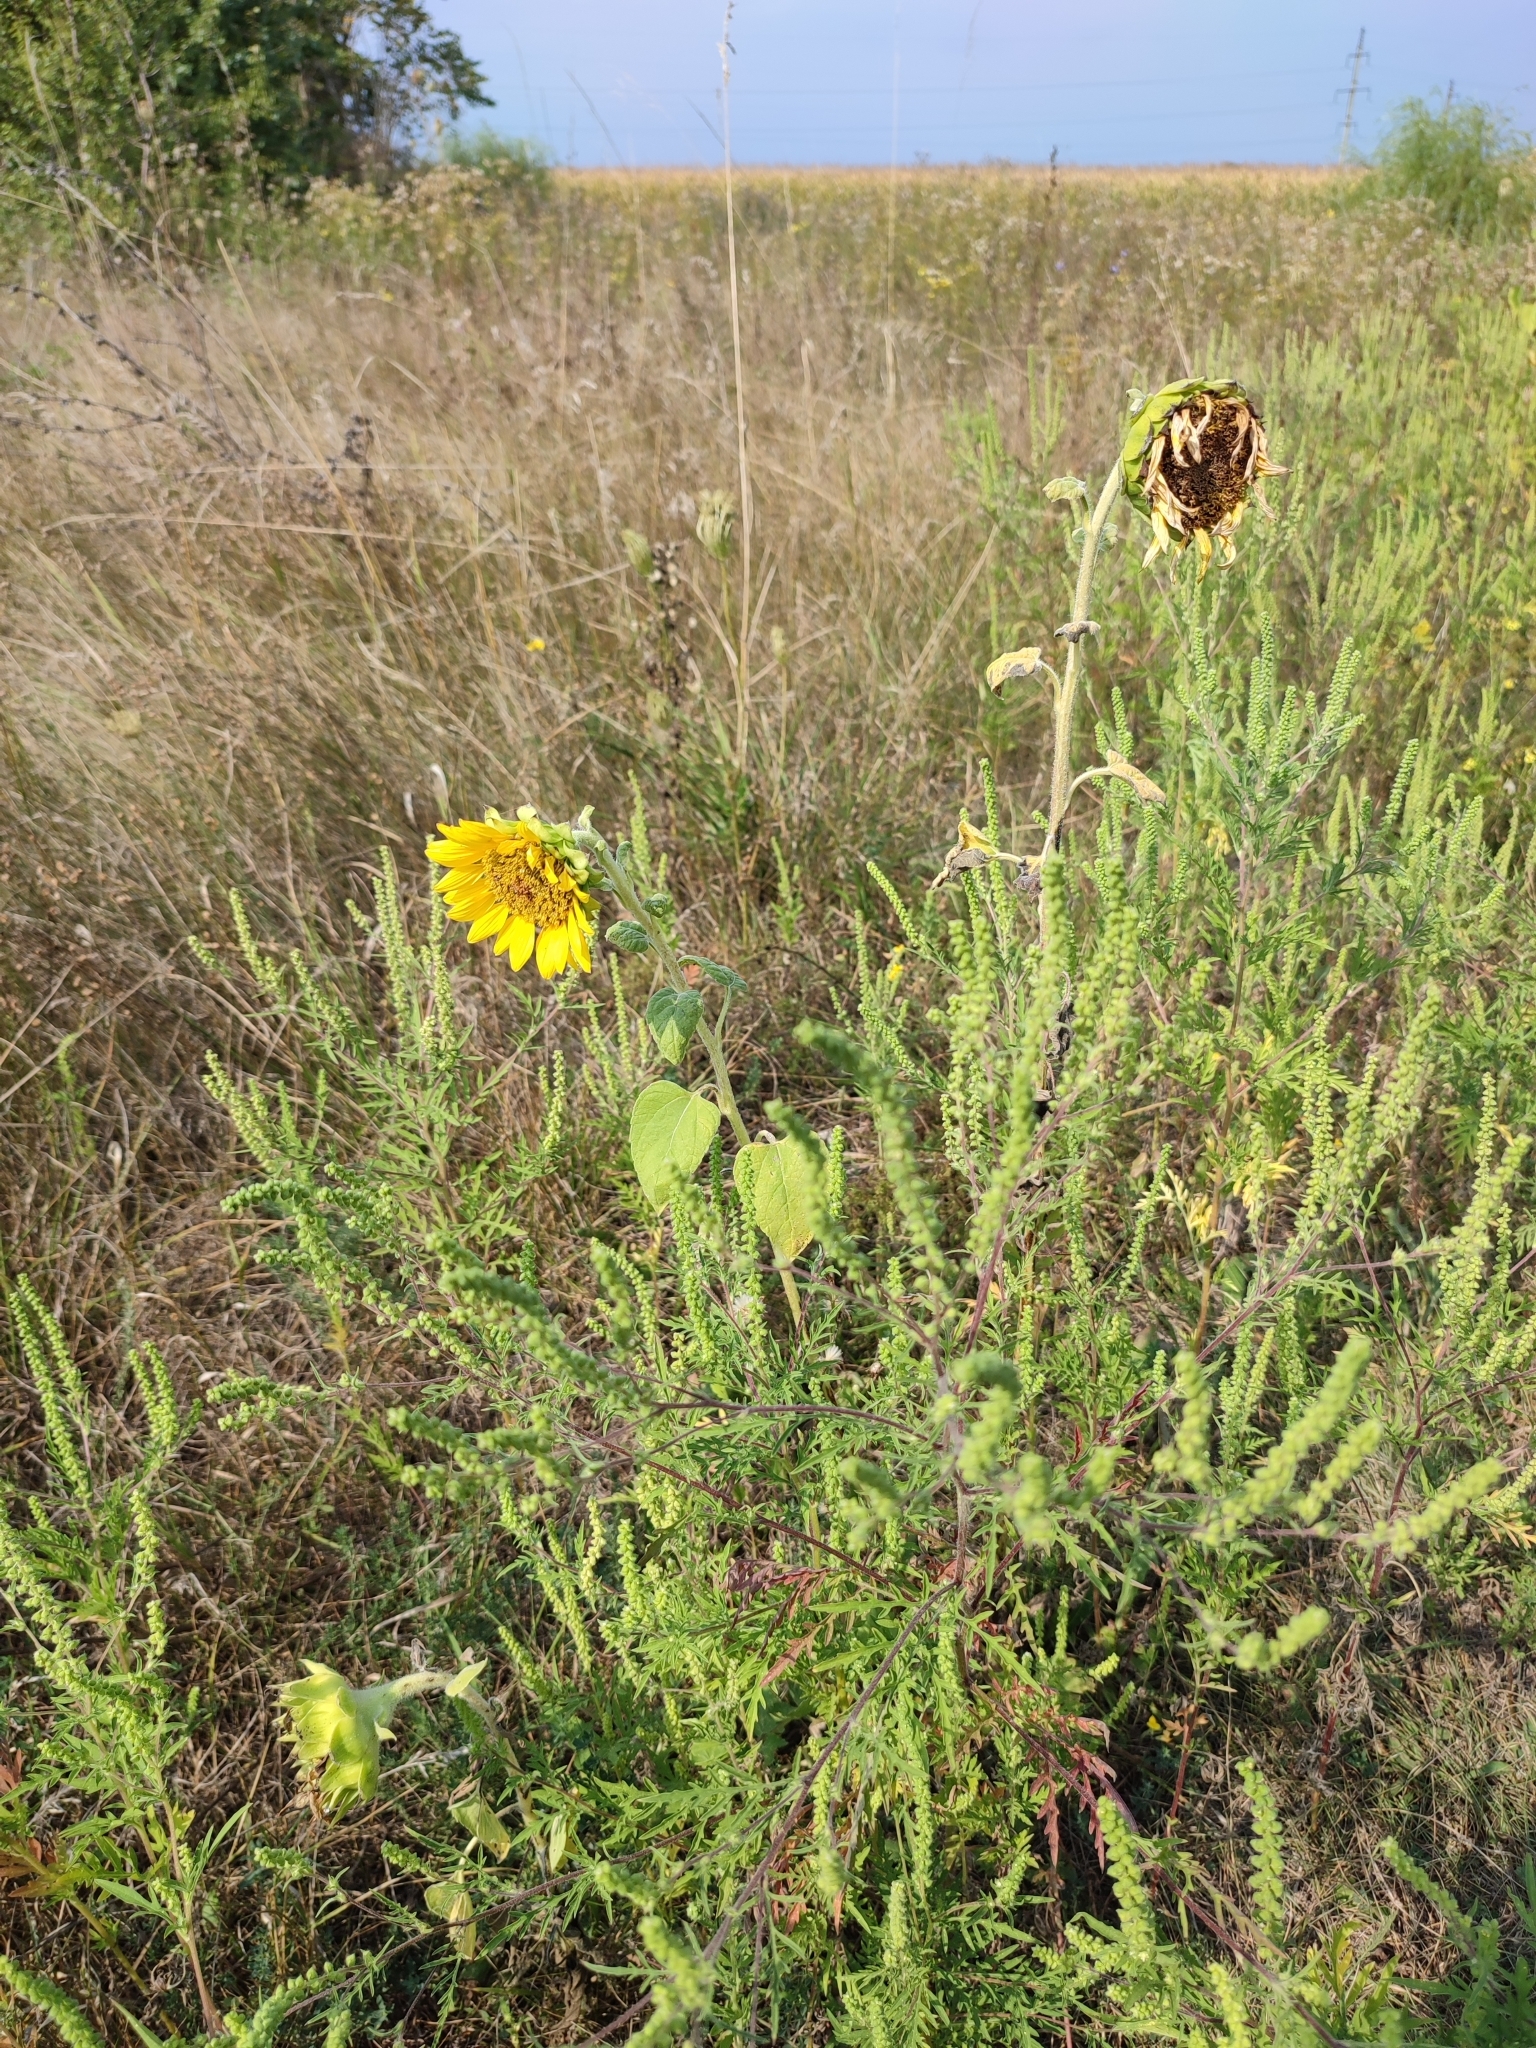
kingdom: Plantae
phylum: Tracheophyta
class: Magnoliopsida
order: Asterales
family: Asteraceae
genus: Helianthus
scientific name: Helianthus annuus
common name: Sunflower
